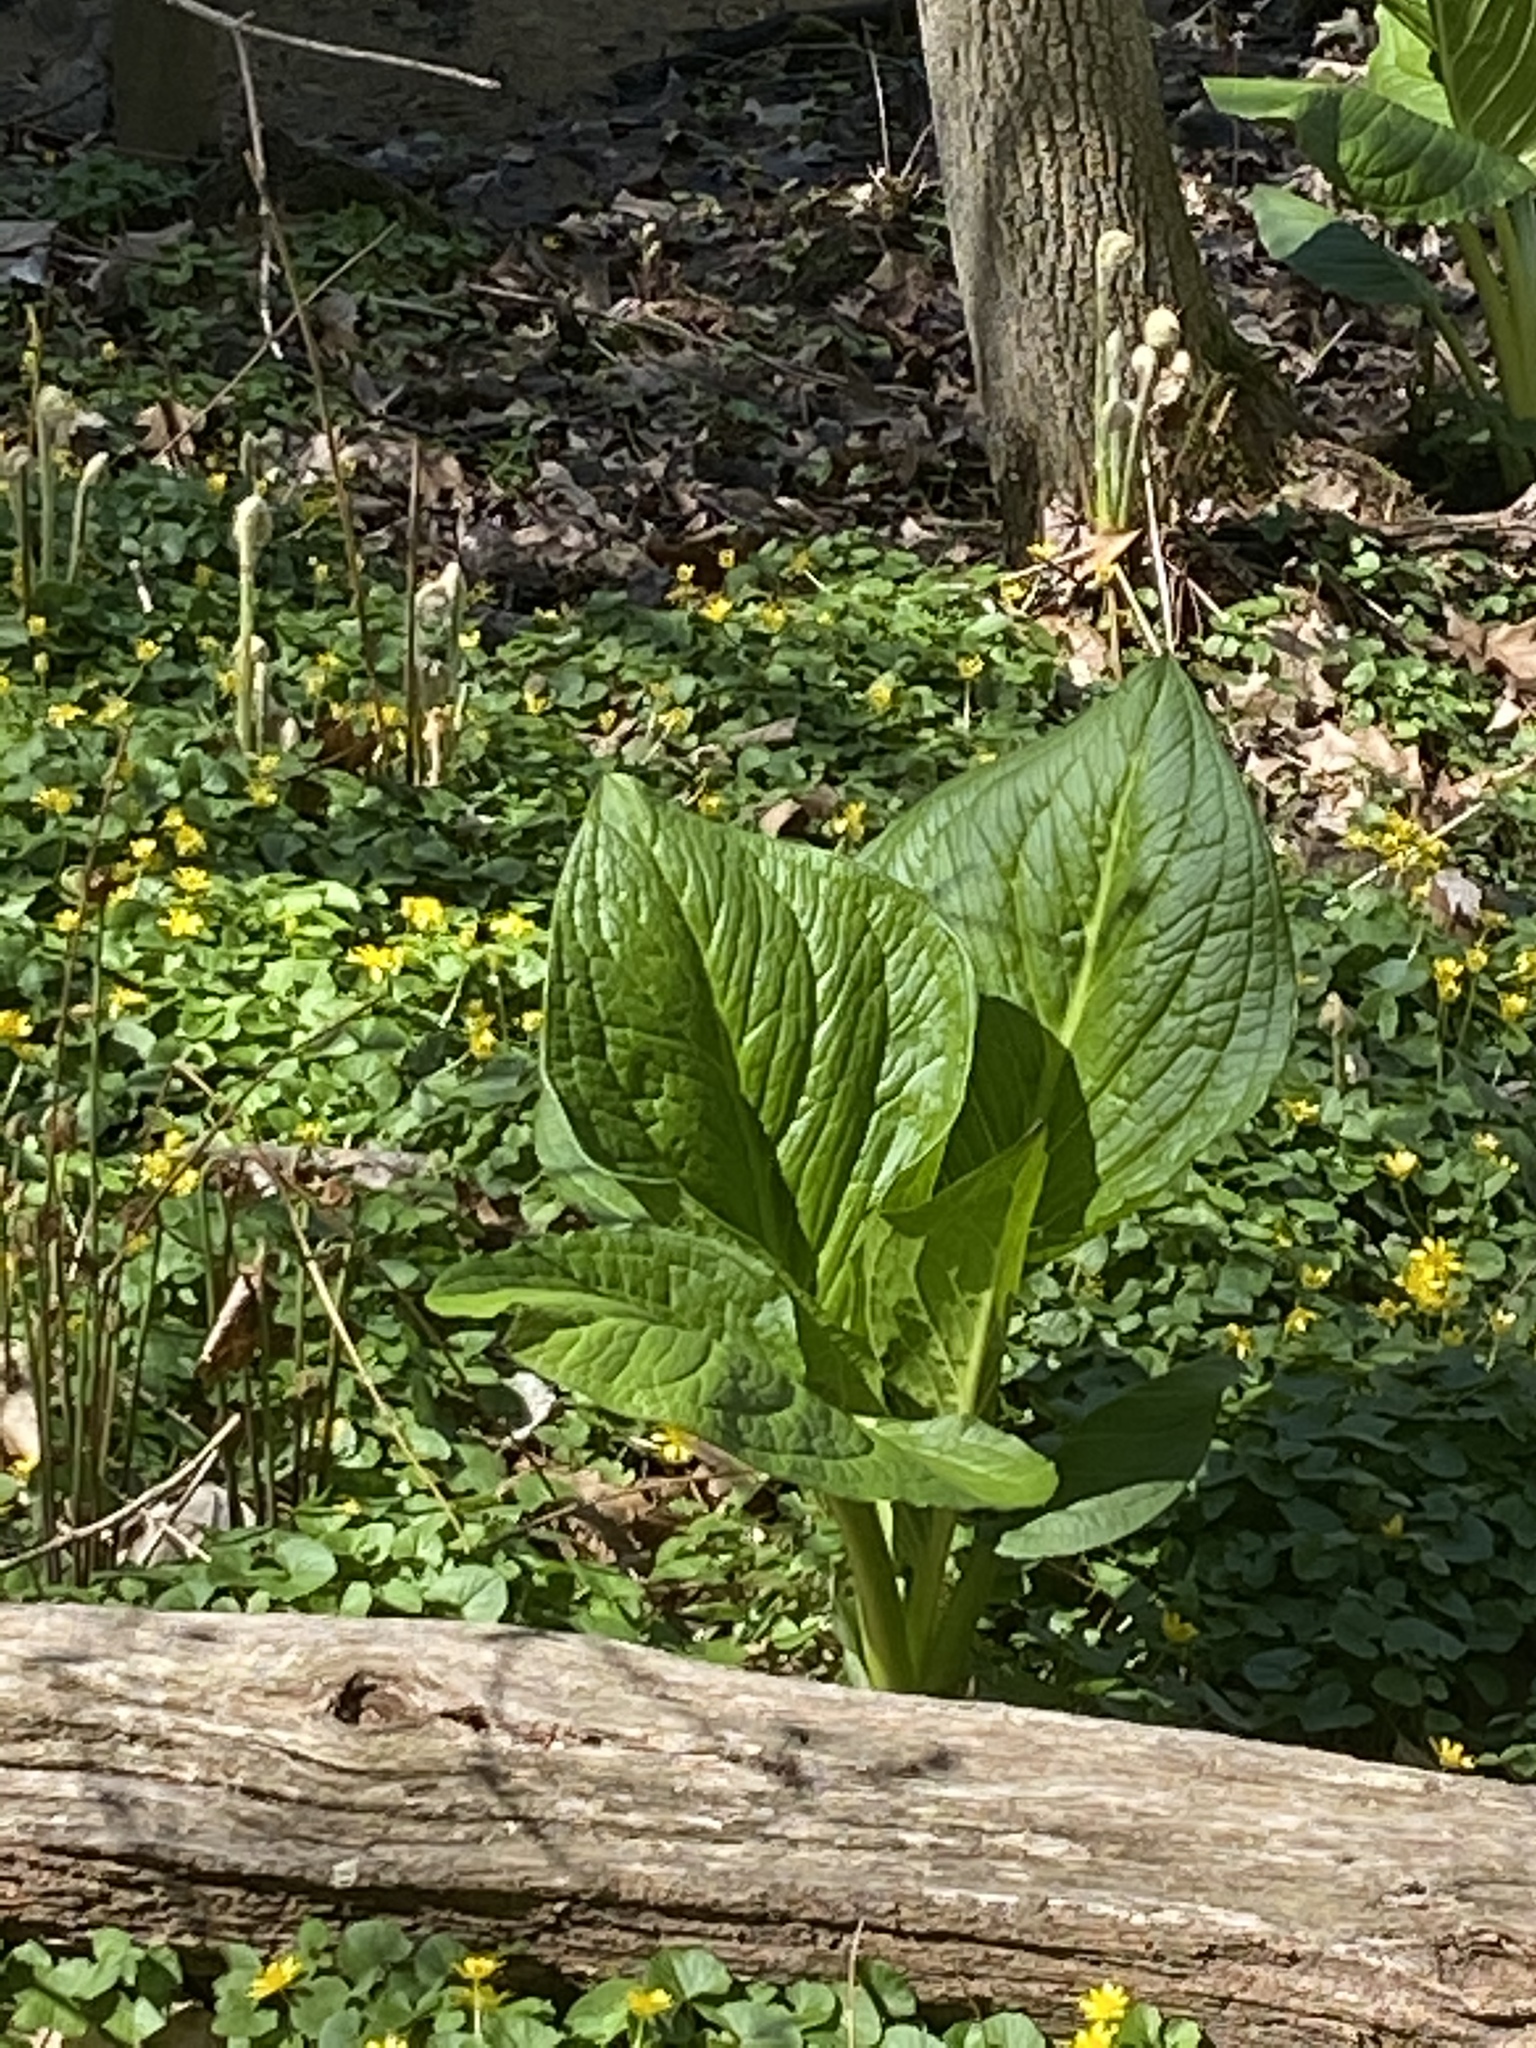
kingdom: Plantae
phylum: Tracheophyta
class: Liliopsida
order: Alismatales
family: Araceae
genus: Symplocarpus
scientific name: Symplocarpus foetidus
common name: Eastern skunk cabbage
